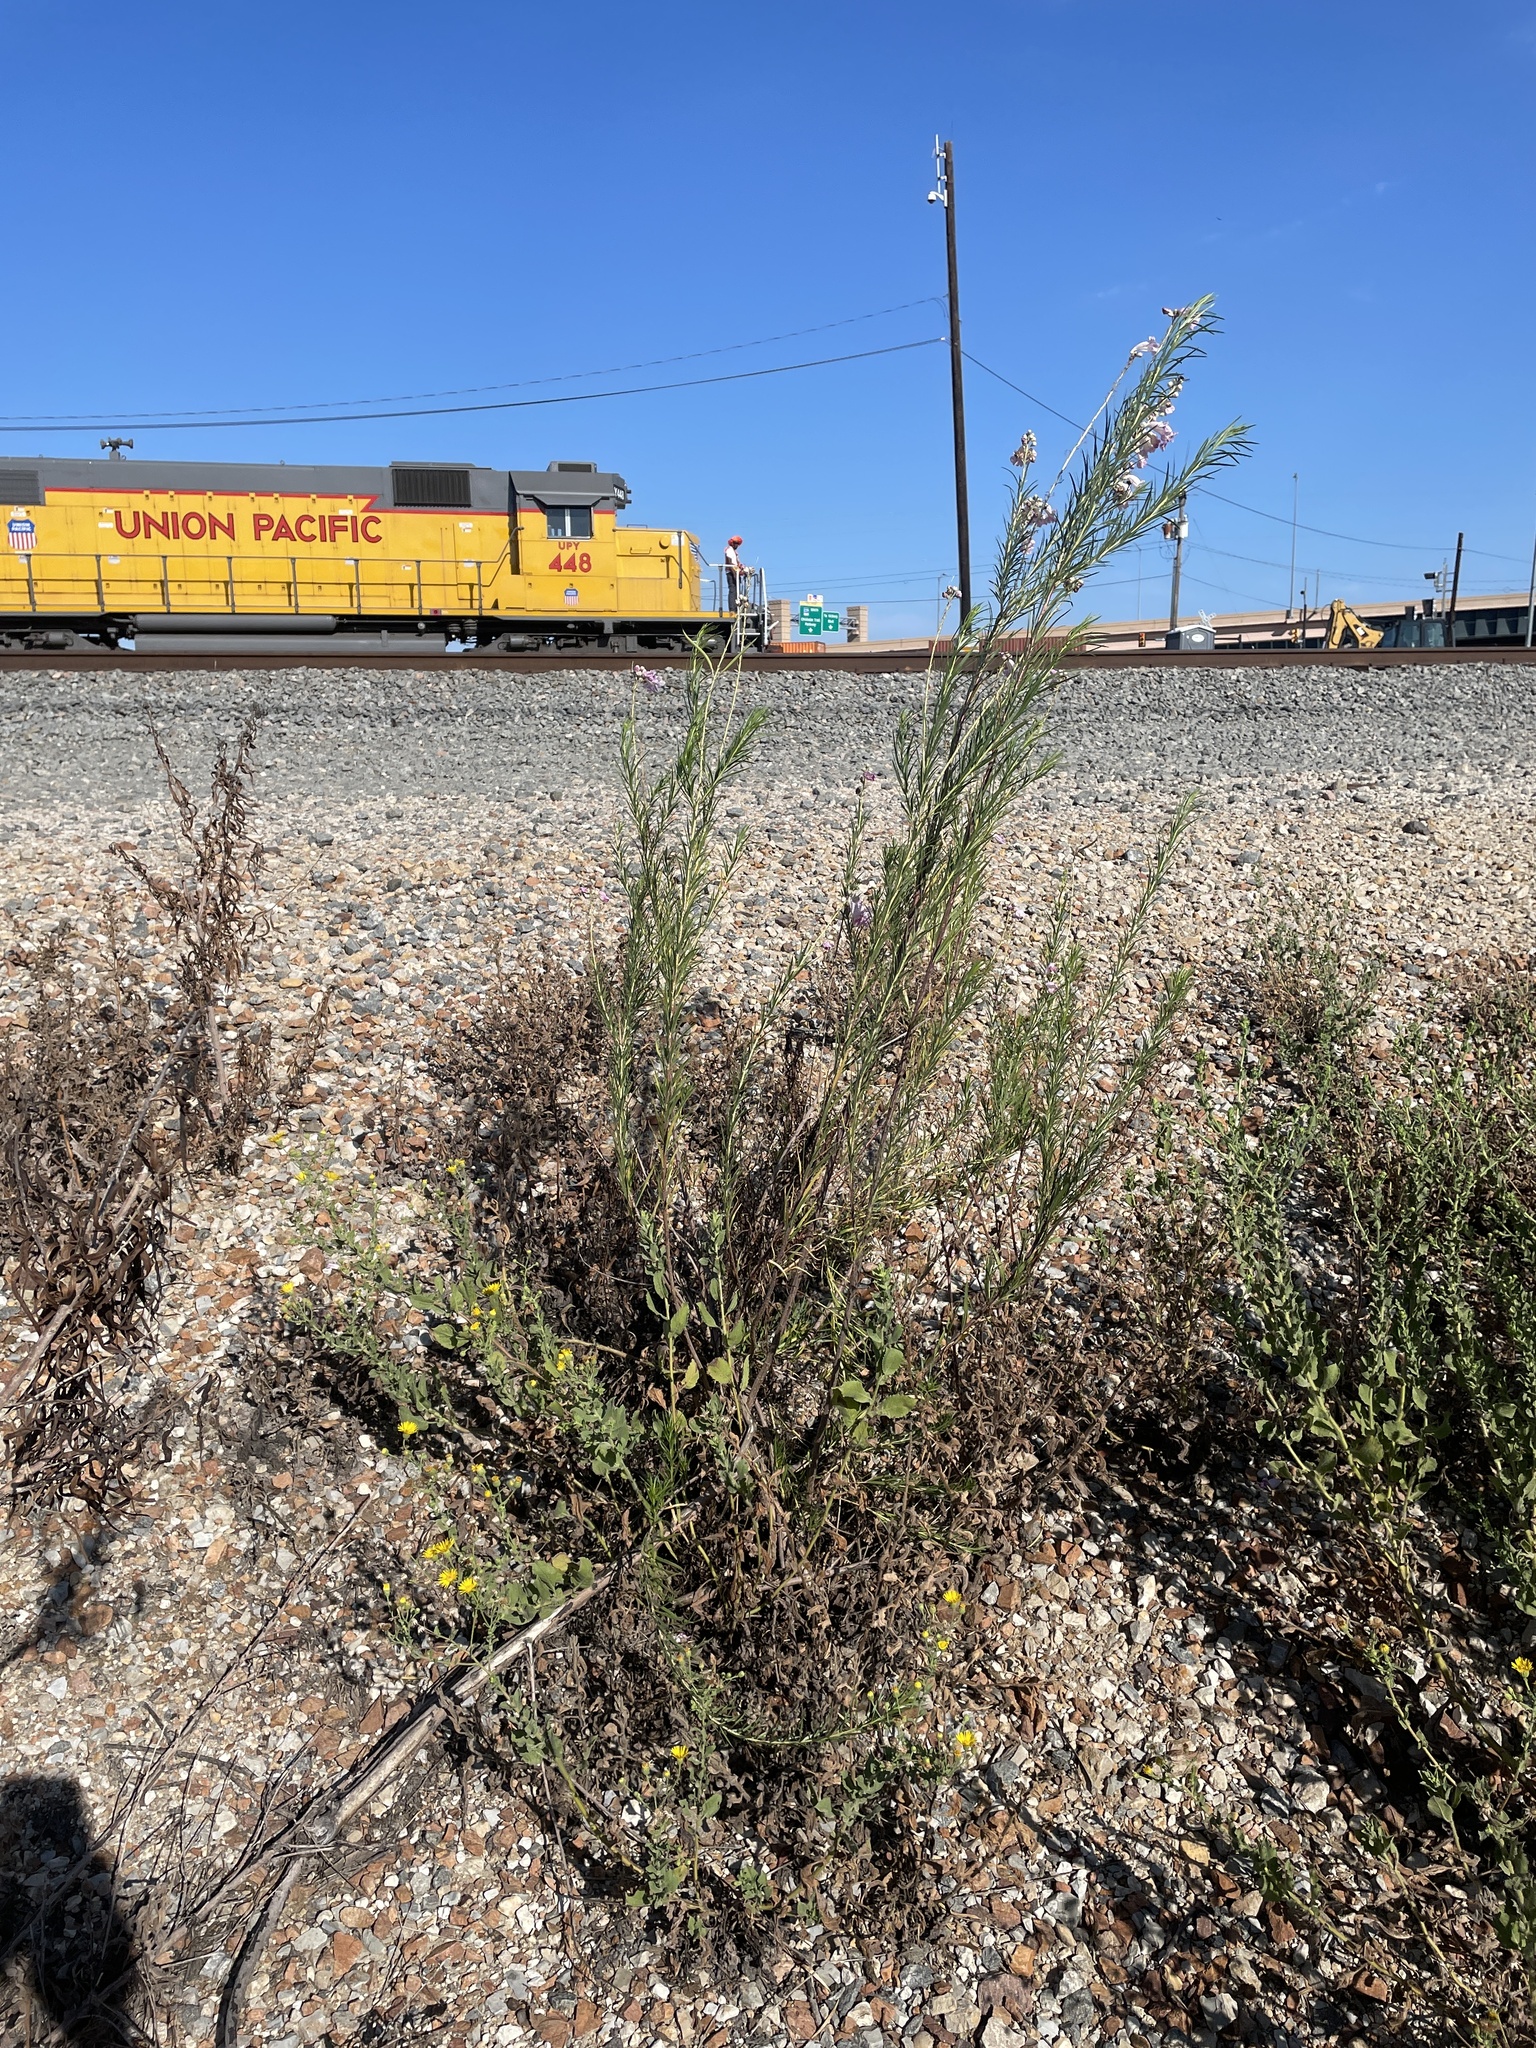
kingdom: Plantae
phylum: Tracheophyta
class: Magnoliopsida
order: Lamiales
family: Bignoniaceae
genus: Chilopsis
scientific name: Chilopsis linearis
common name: Desert-willow
